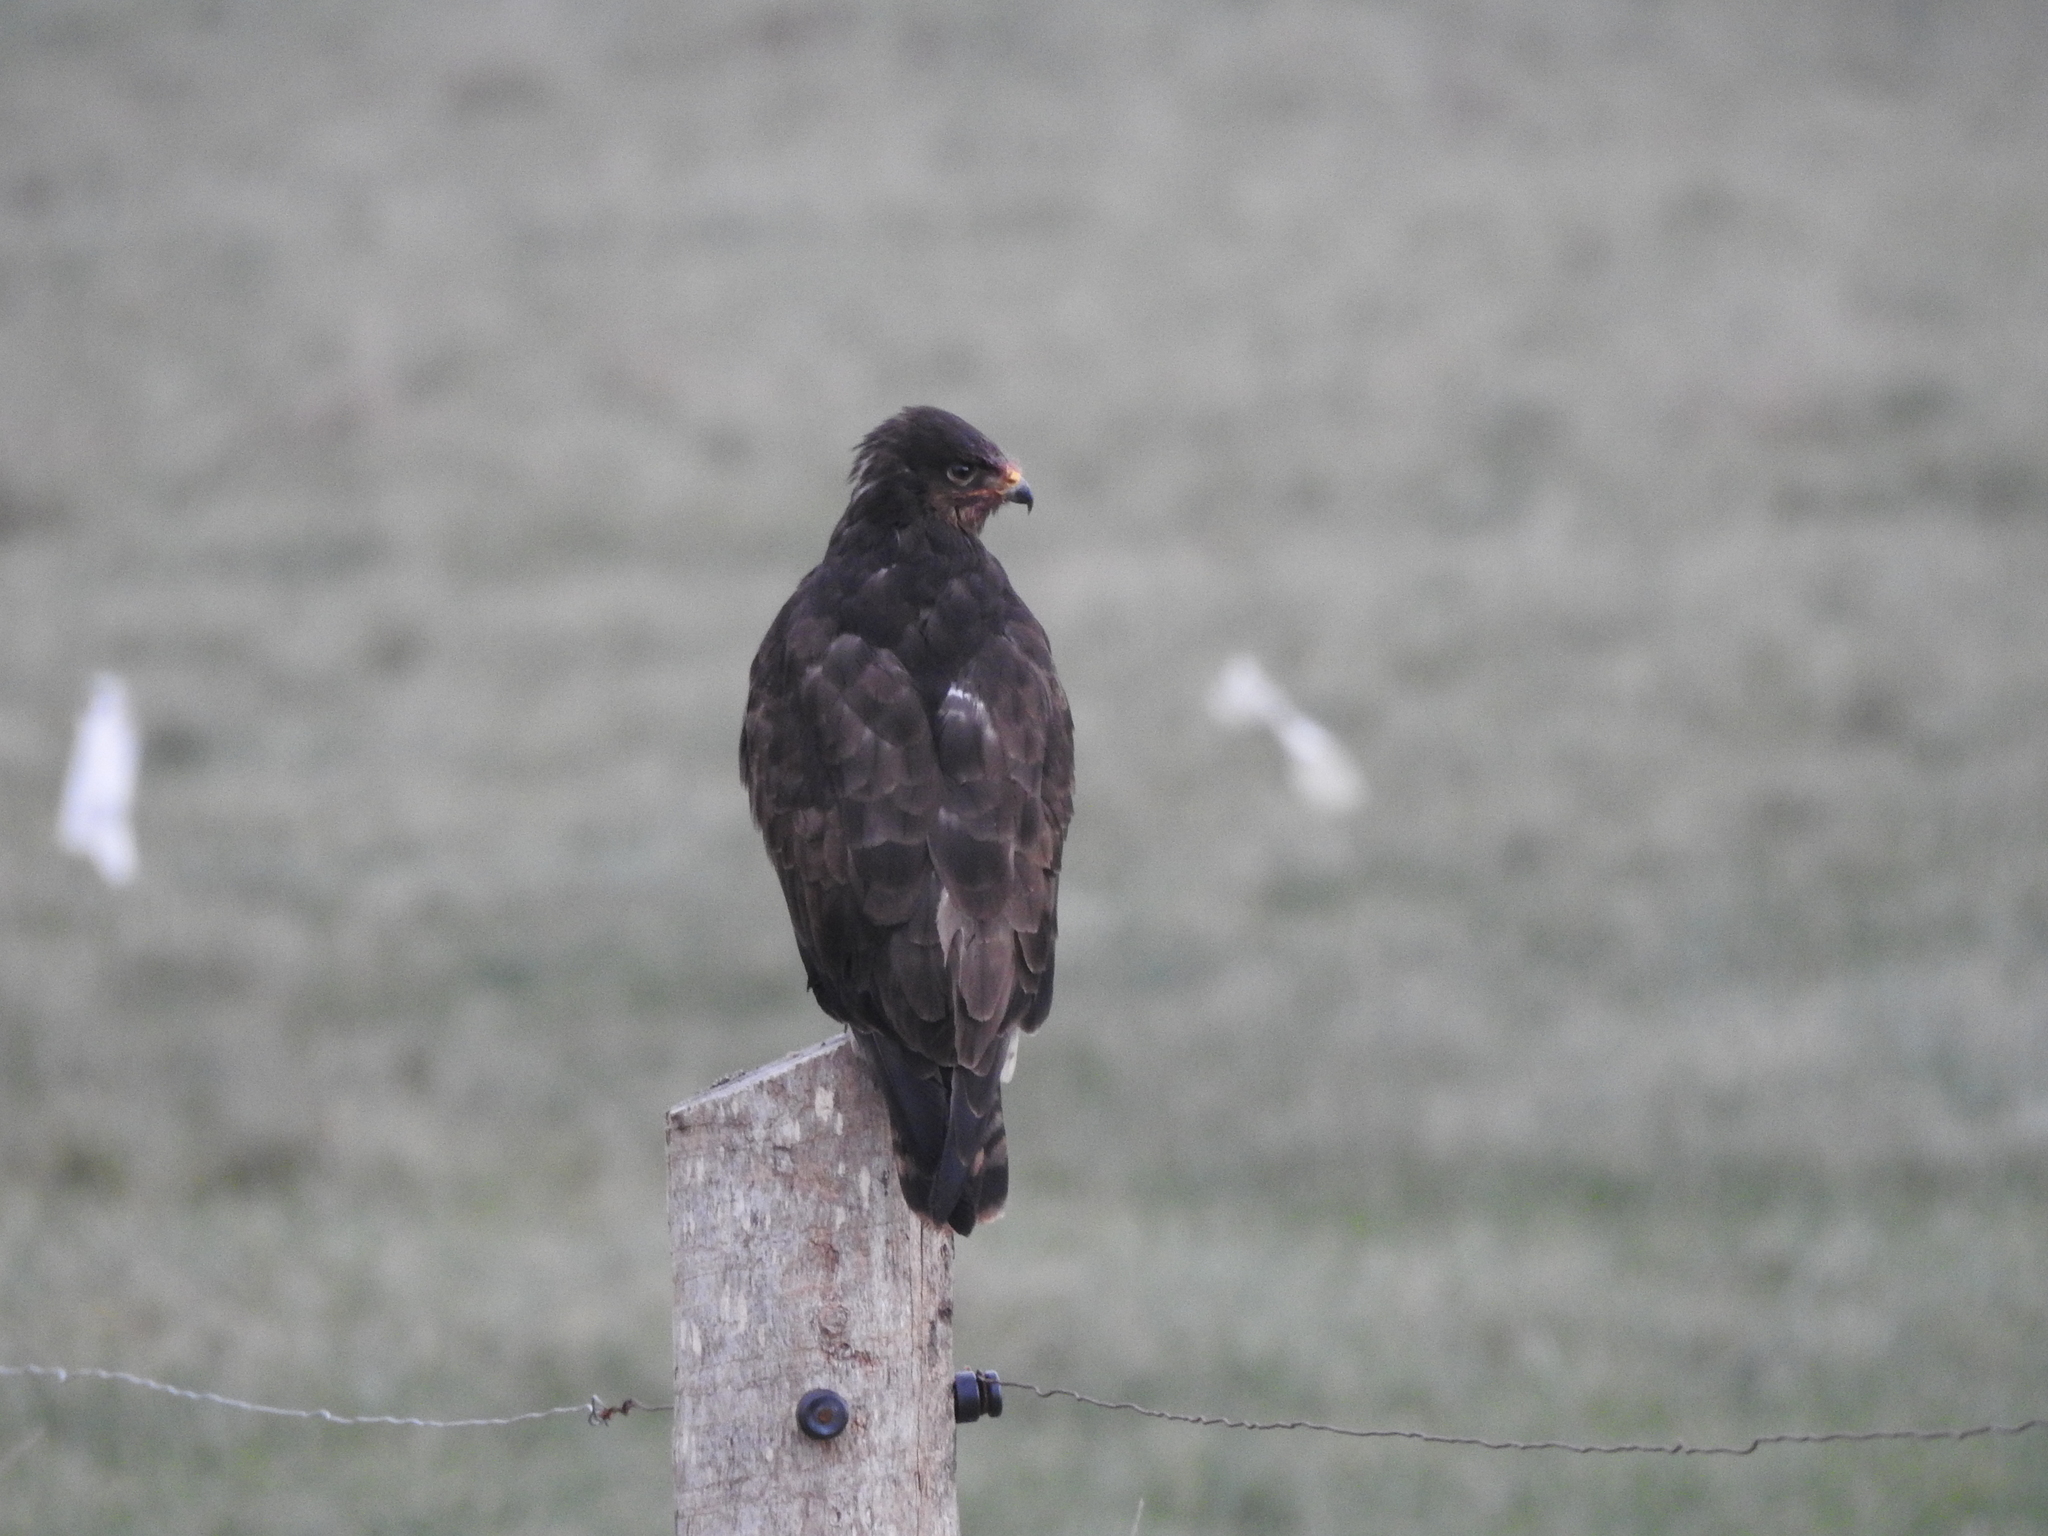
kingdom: Animalia
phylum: Chordata
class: Aves
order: Accipitriformes
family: Accipitridae
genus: Buteo
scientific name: Buteo buteo
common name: Common buzzard
